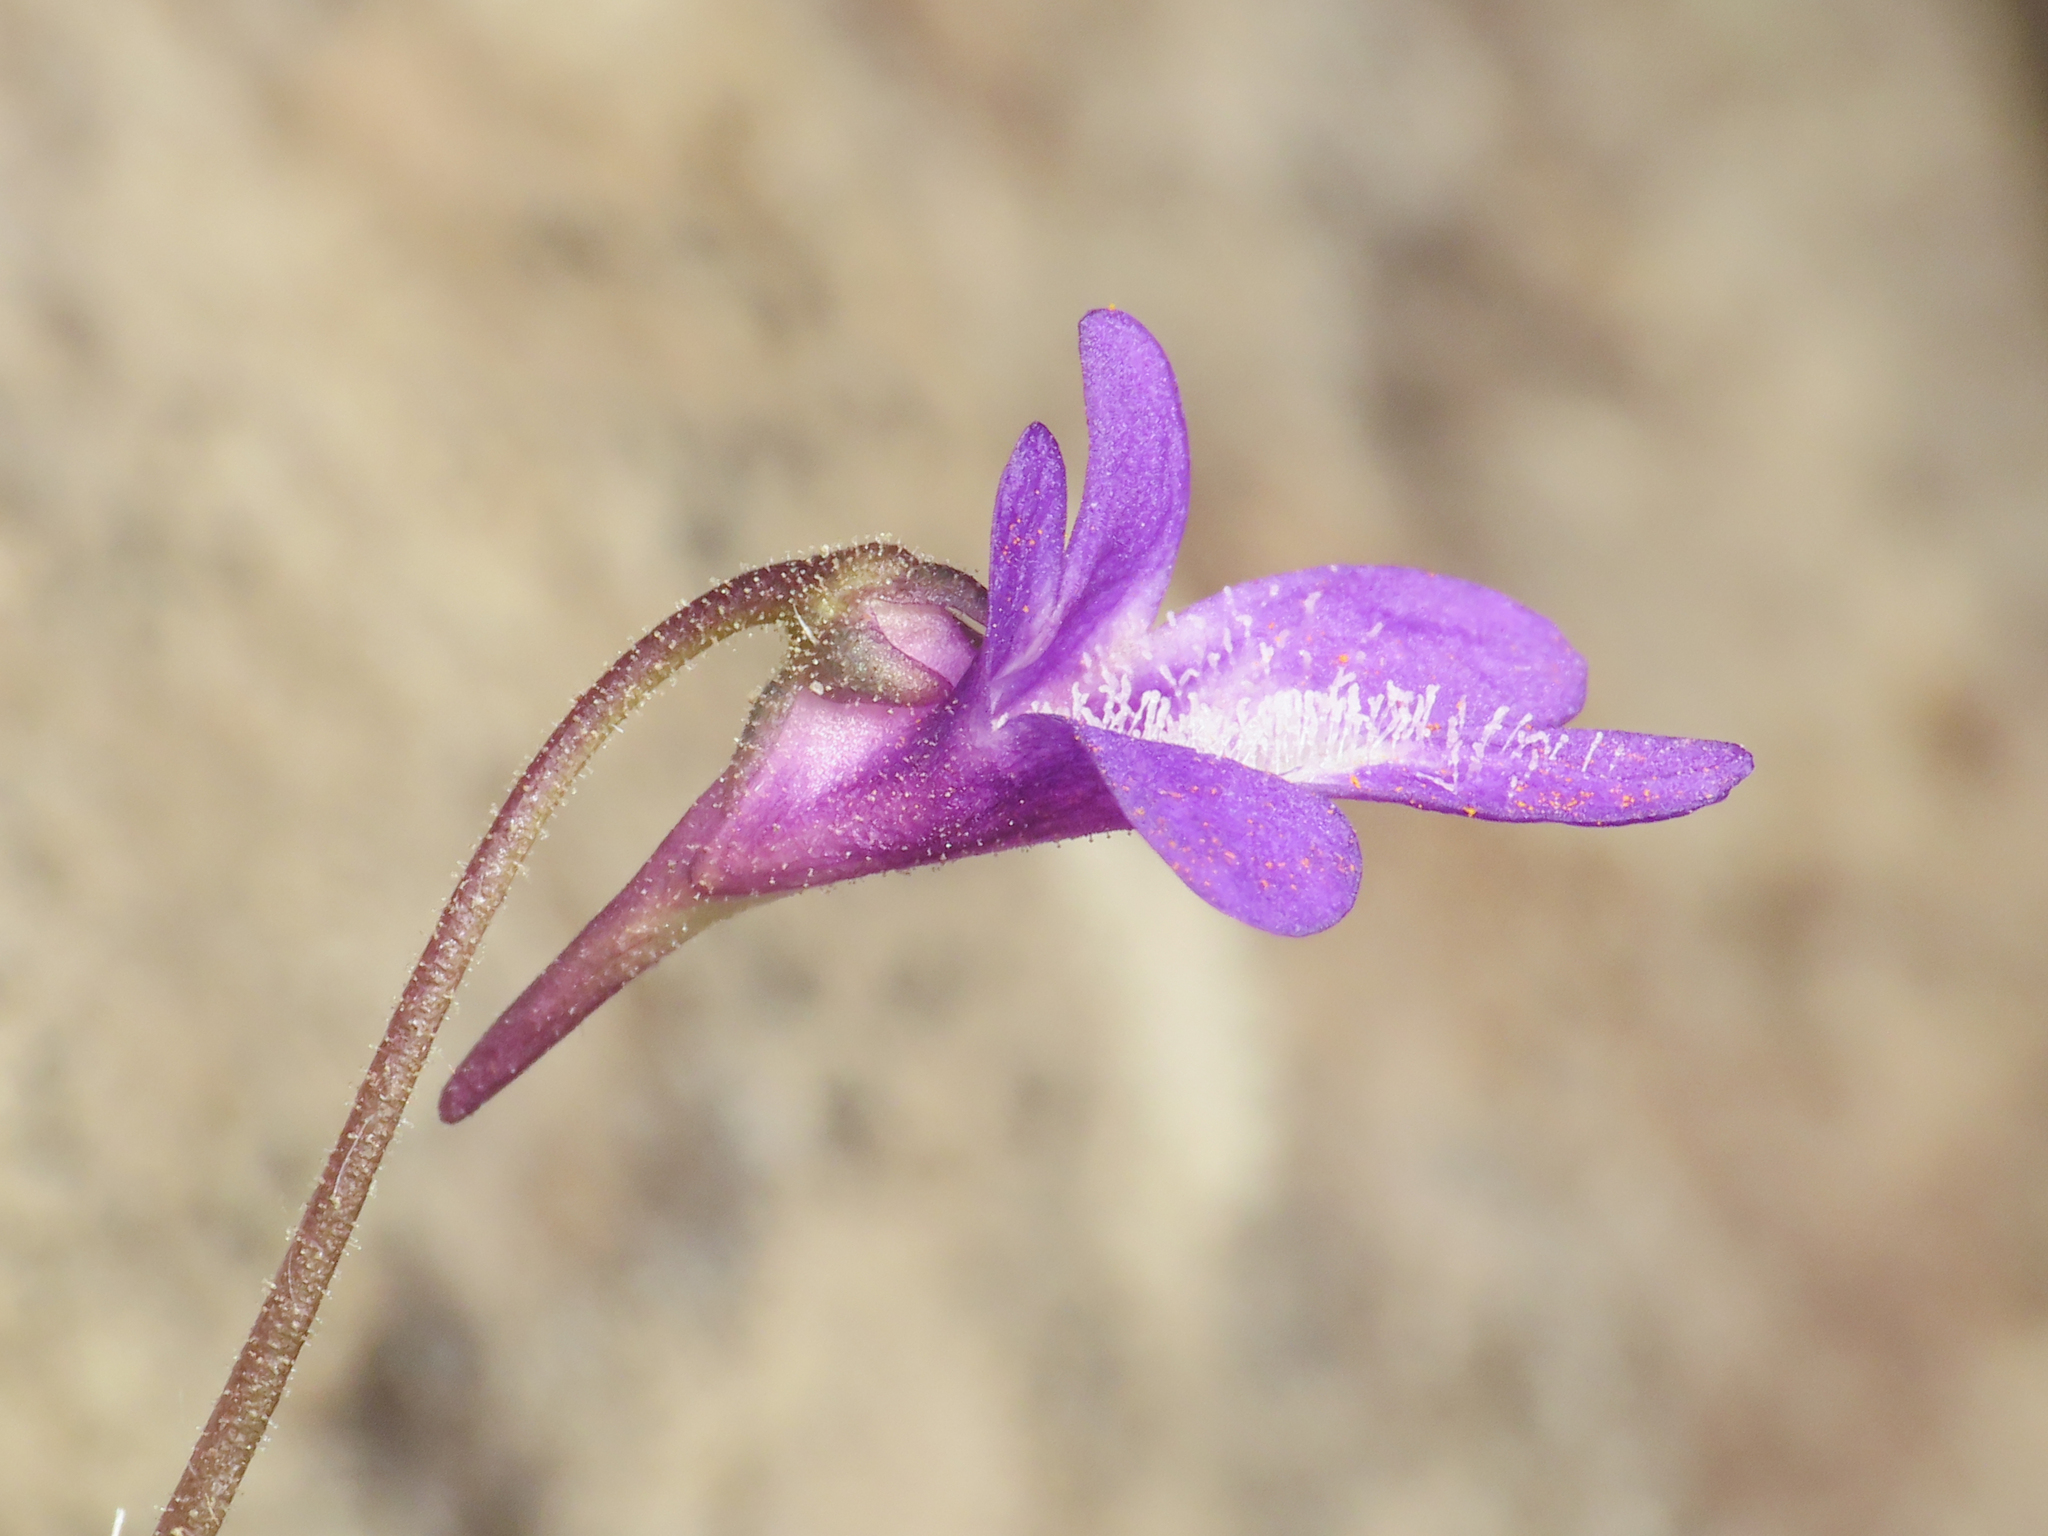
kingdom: Plantae
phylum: Tracheophyta
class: Magnoliopsida
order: Lamiales
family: Lentibulariaceae
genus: Pinguicula
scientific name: Pinguicula vulgaris
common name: Common butterwort
